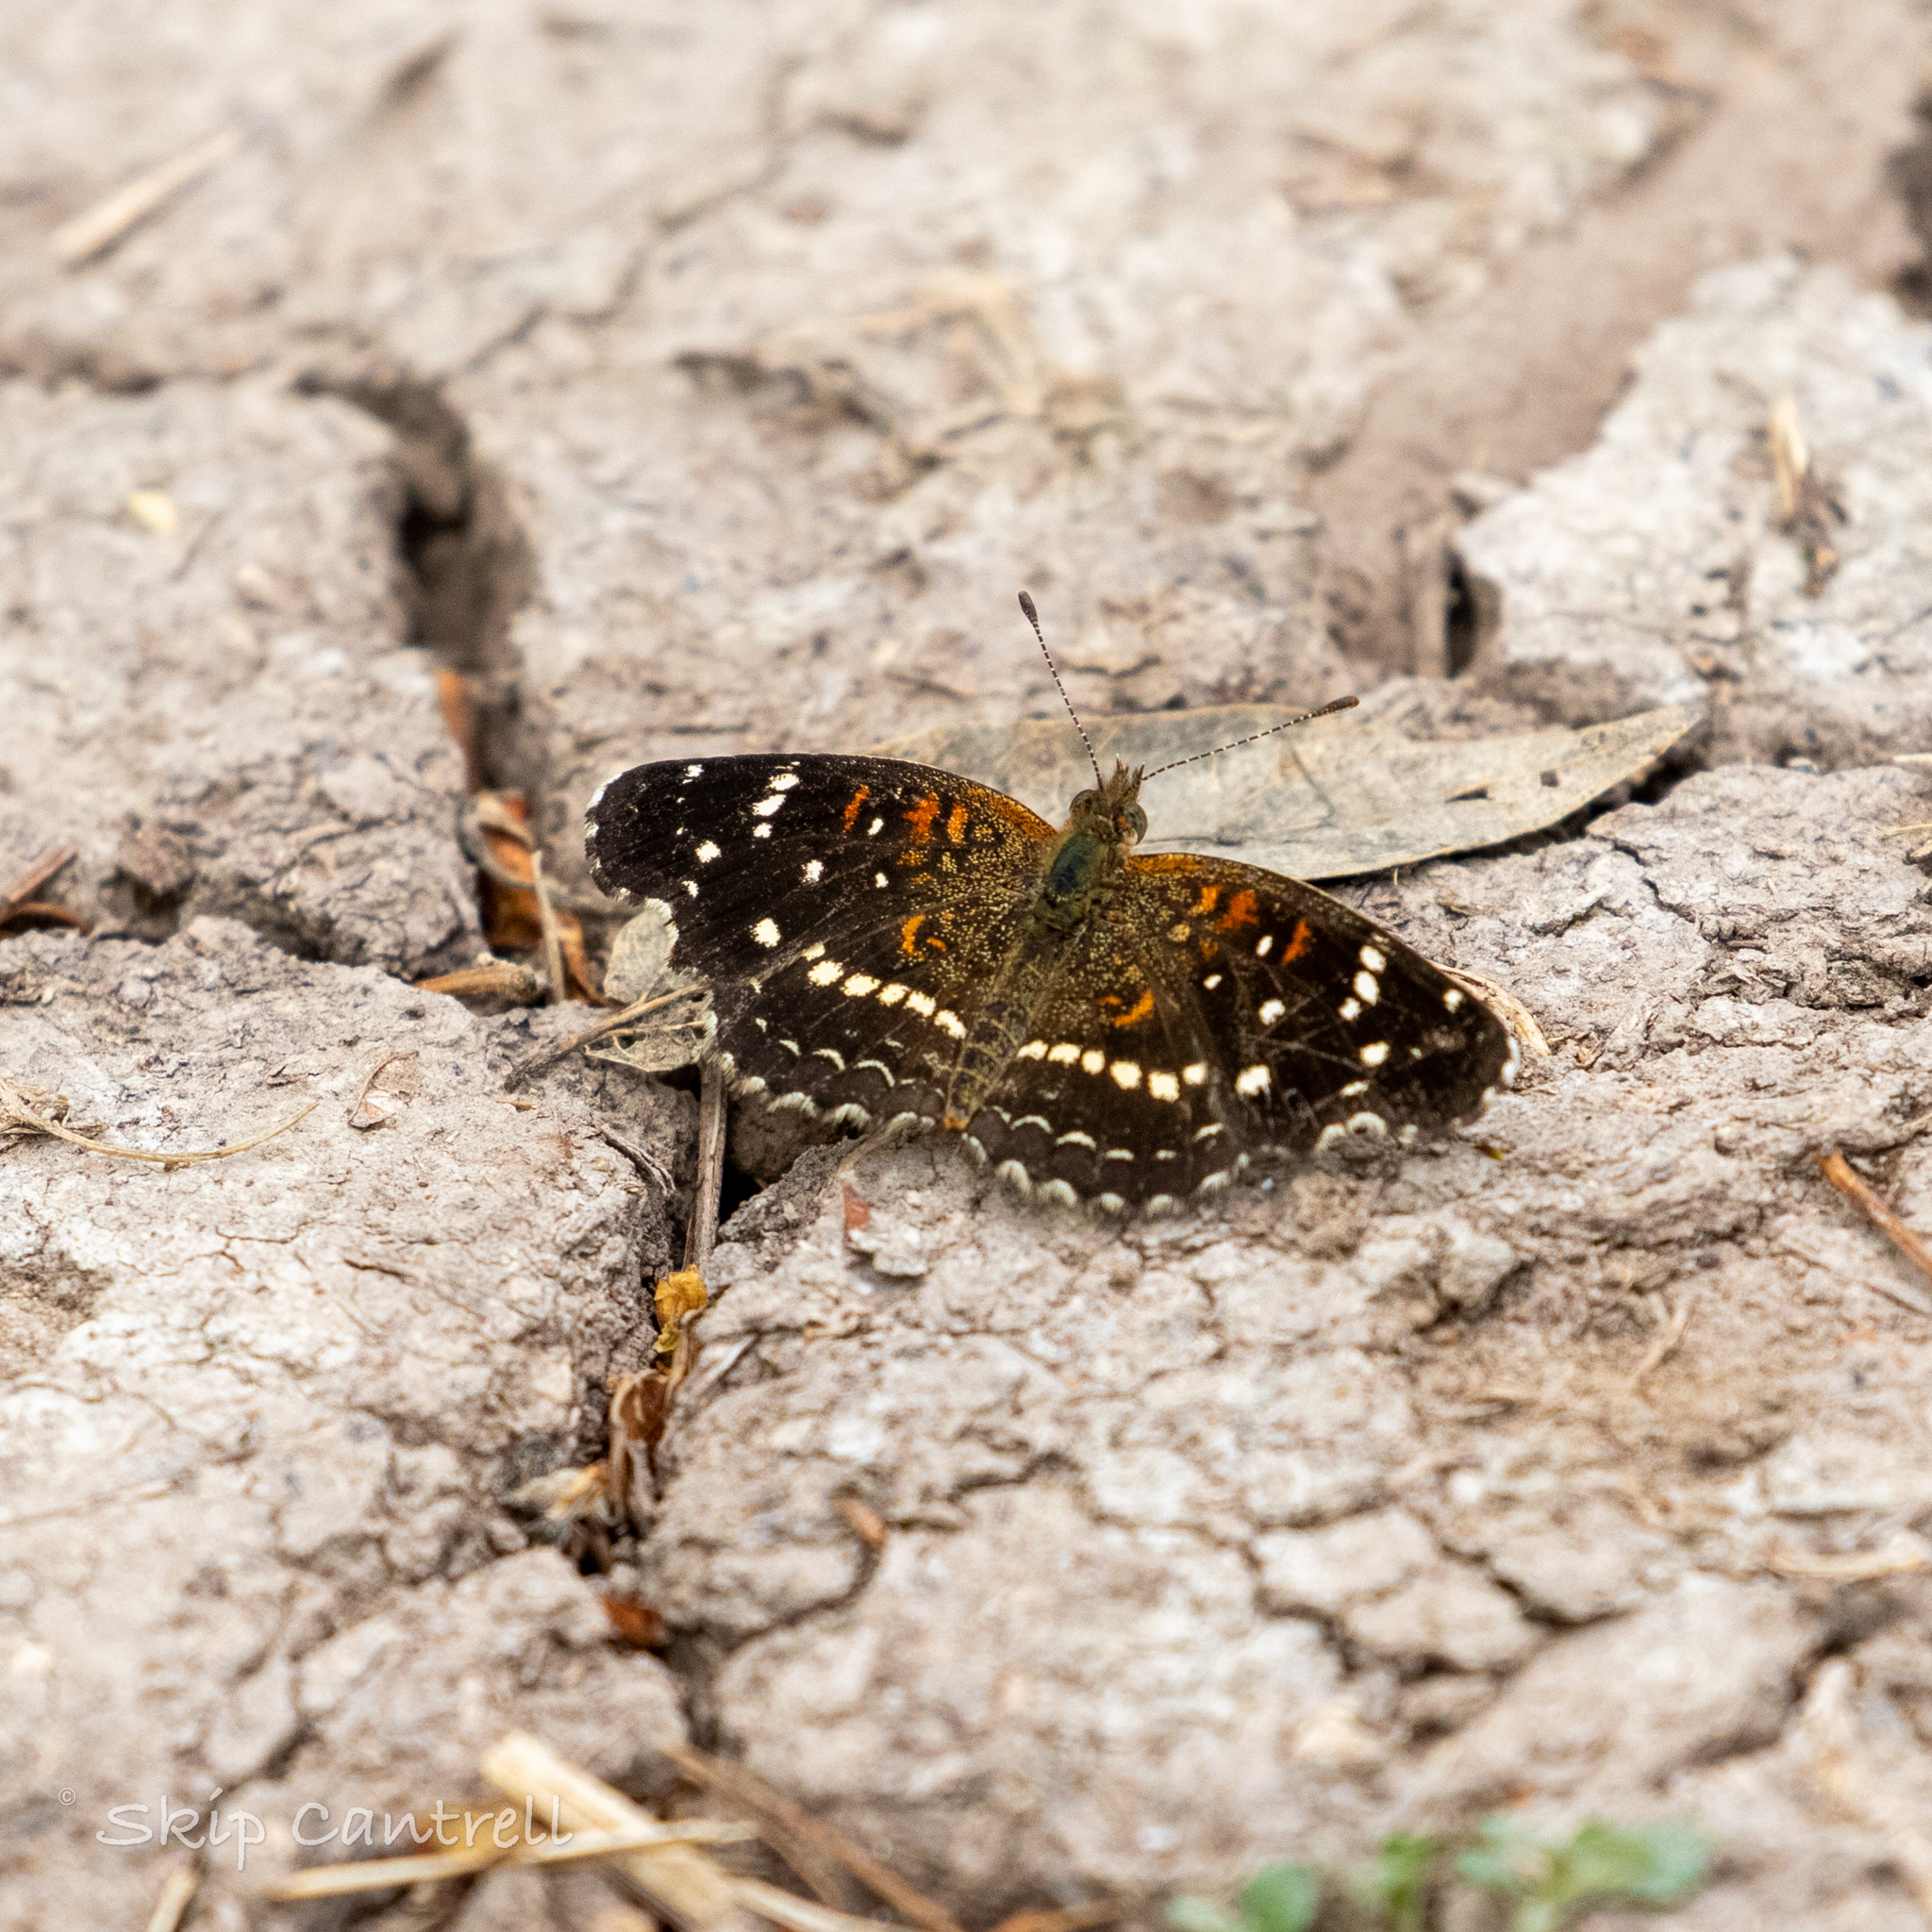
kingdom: Animalia
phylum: Arthropoda
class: Insecta
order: Lepidoptera
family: Nymphalidae
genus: Anthanassa
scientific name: Anthanassa texana
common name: Texan crescent
